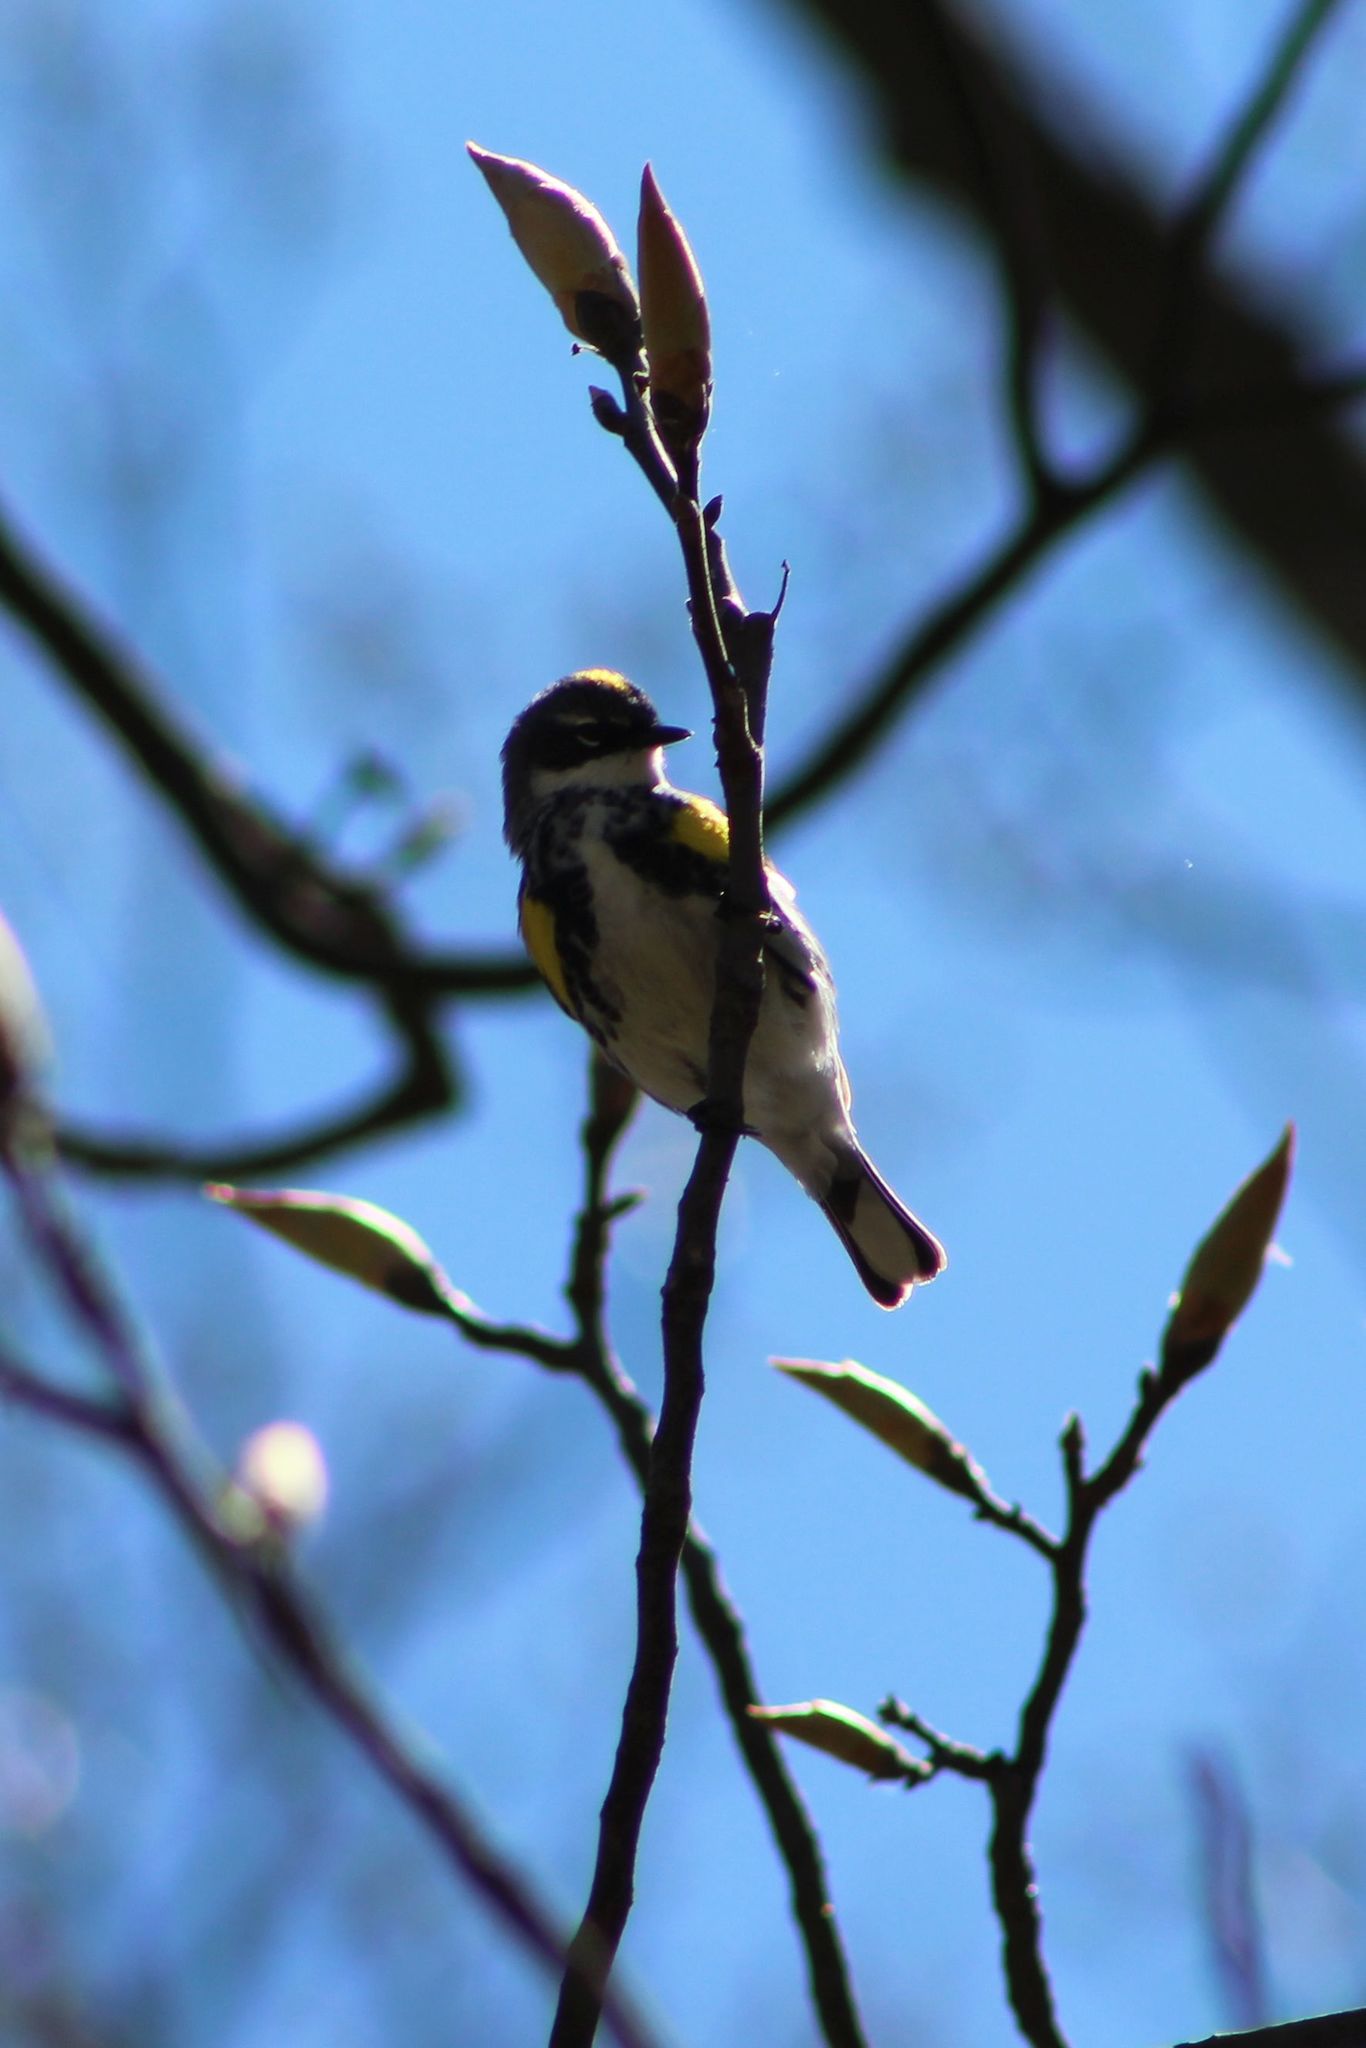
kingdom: Animalia
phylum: Chordata
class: Aves
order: Passeriformes
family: Parulidae
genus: Setophaga
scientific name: Setophaga coronata
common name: Myrtle warbler
